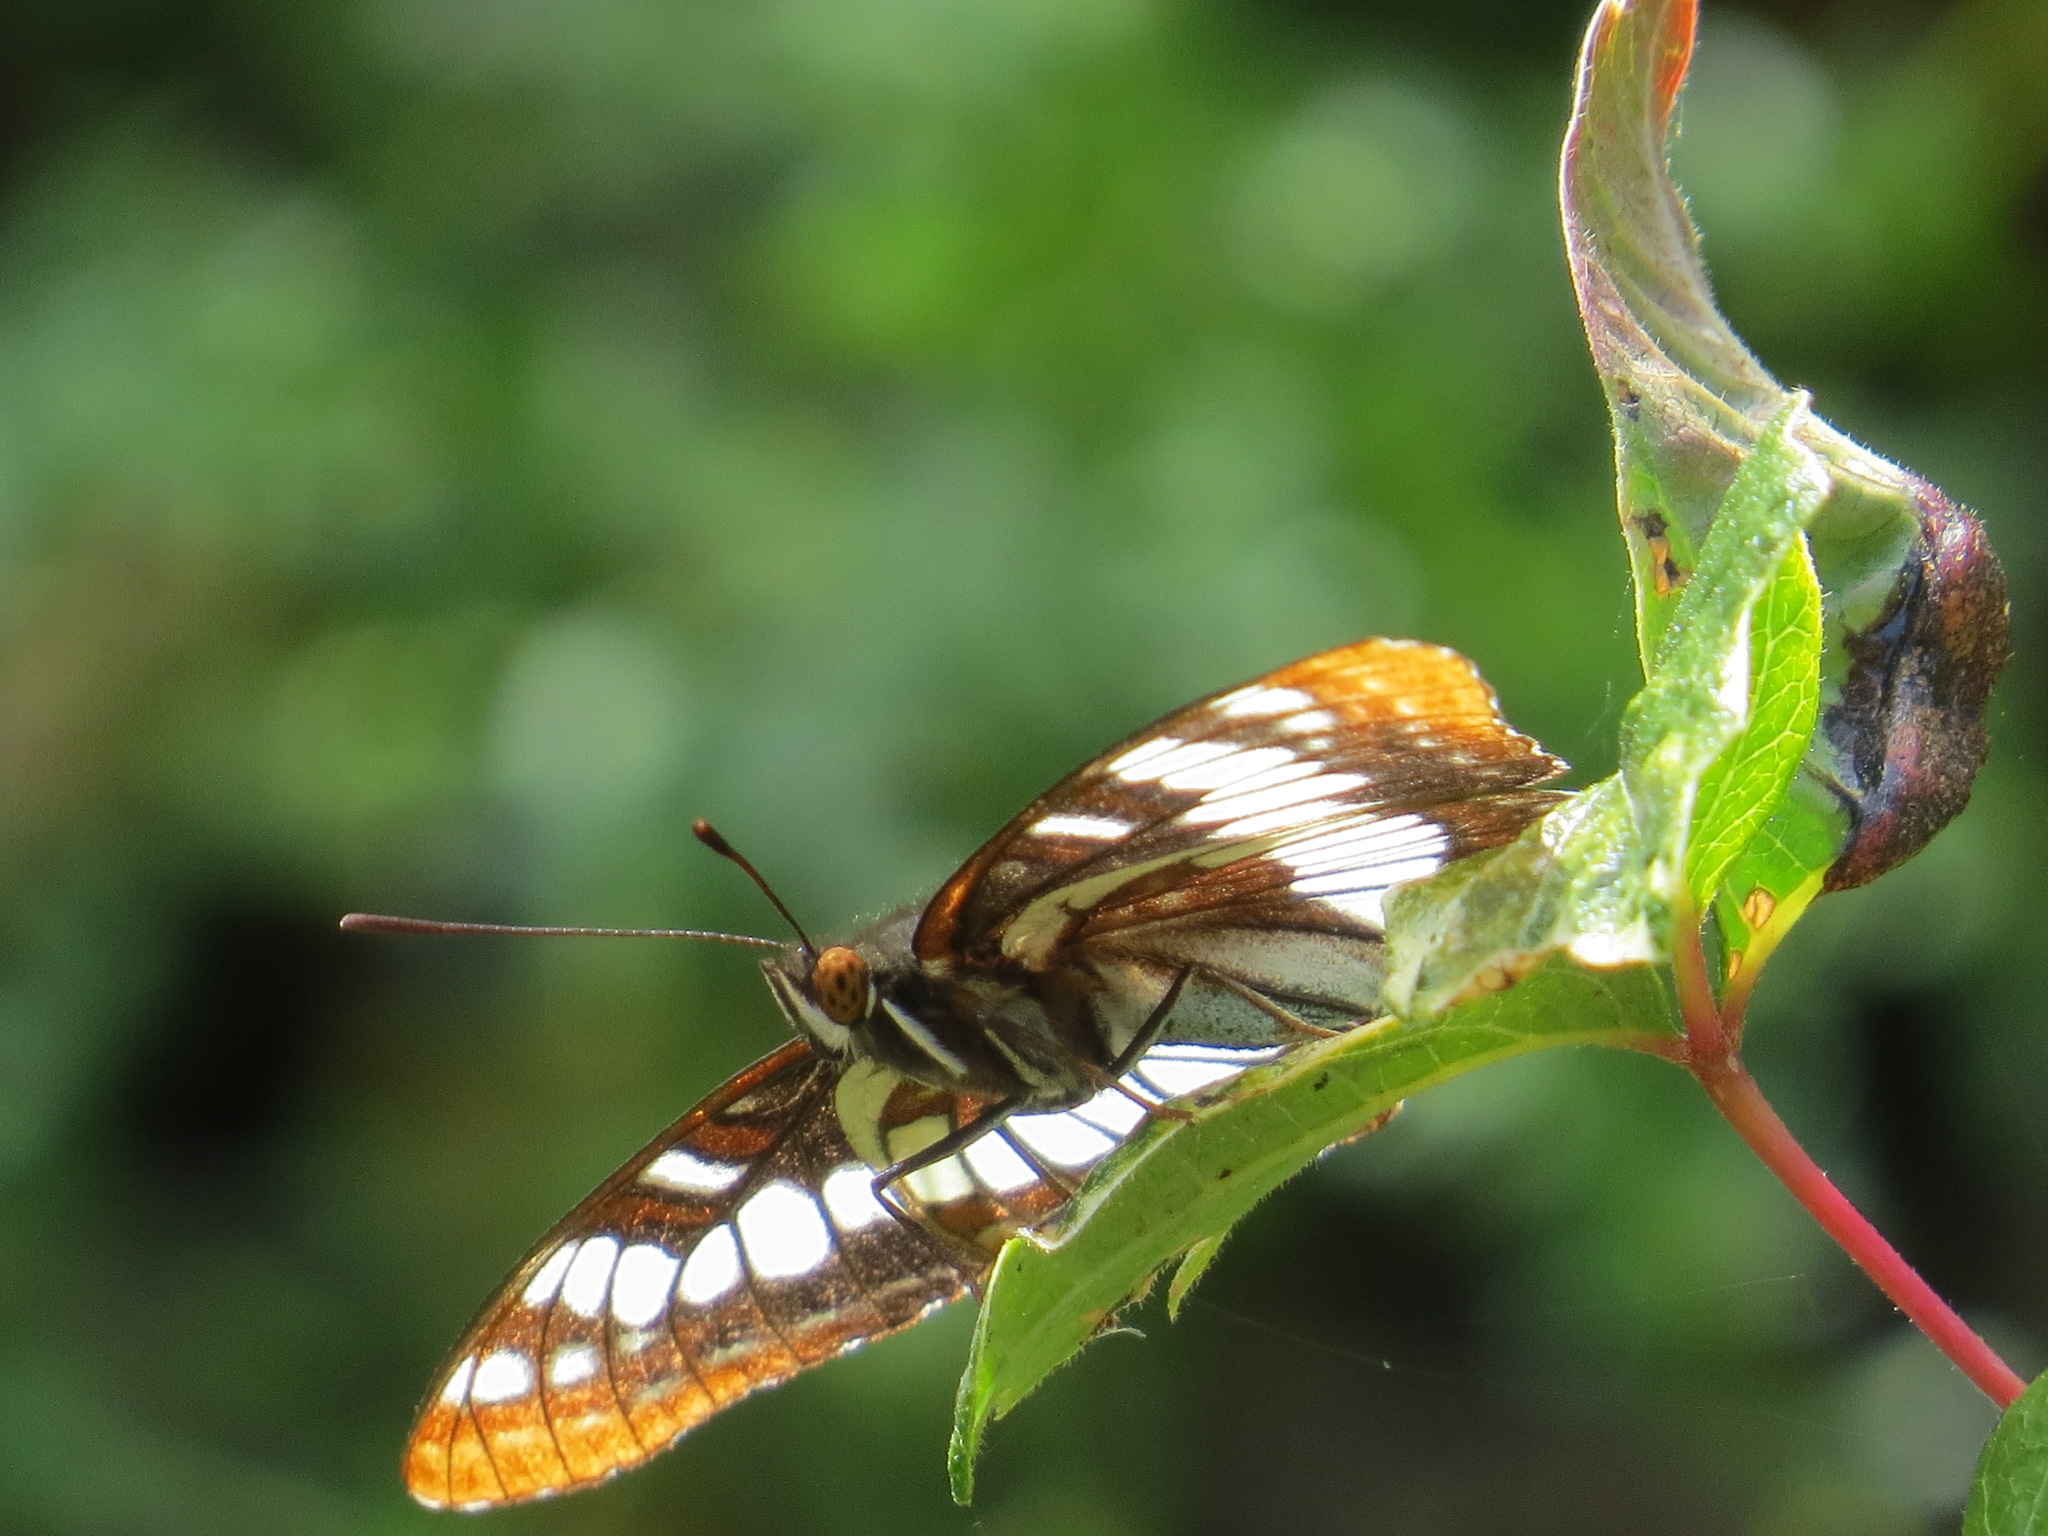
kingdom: Animalia
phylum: Arthropoda
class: Insecta
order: Lepidoptera
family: Nymphalidae
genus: Limenitis
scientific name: Limenitis lorquini
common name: Lorquin's admiral
